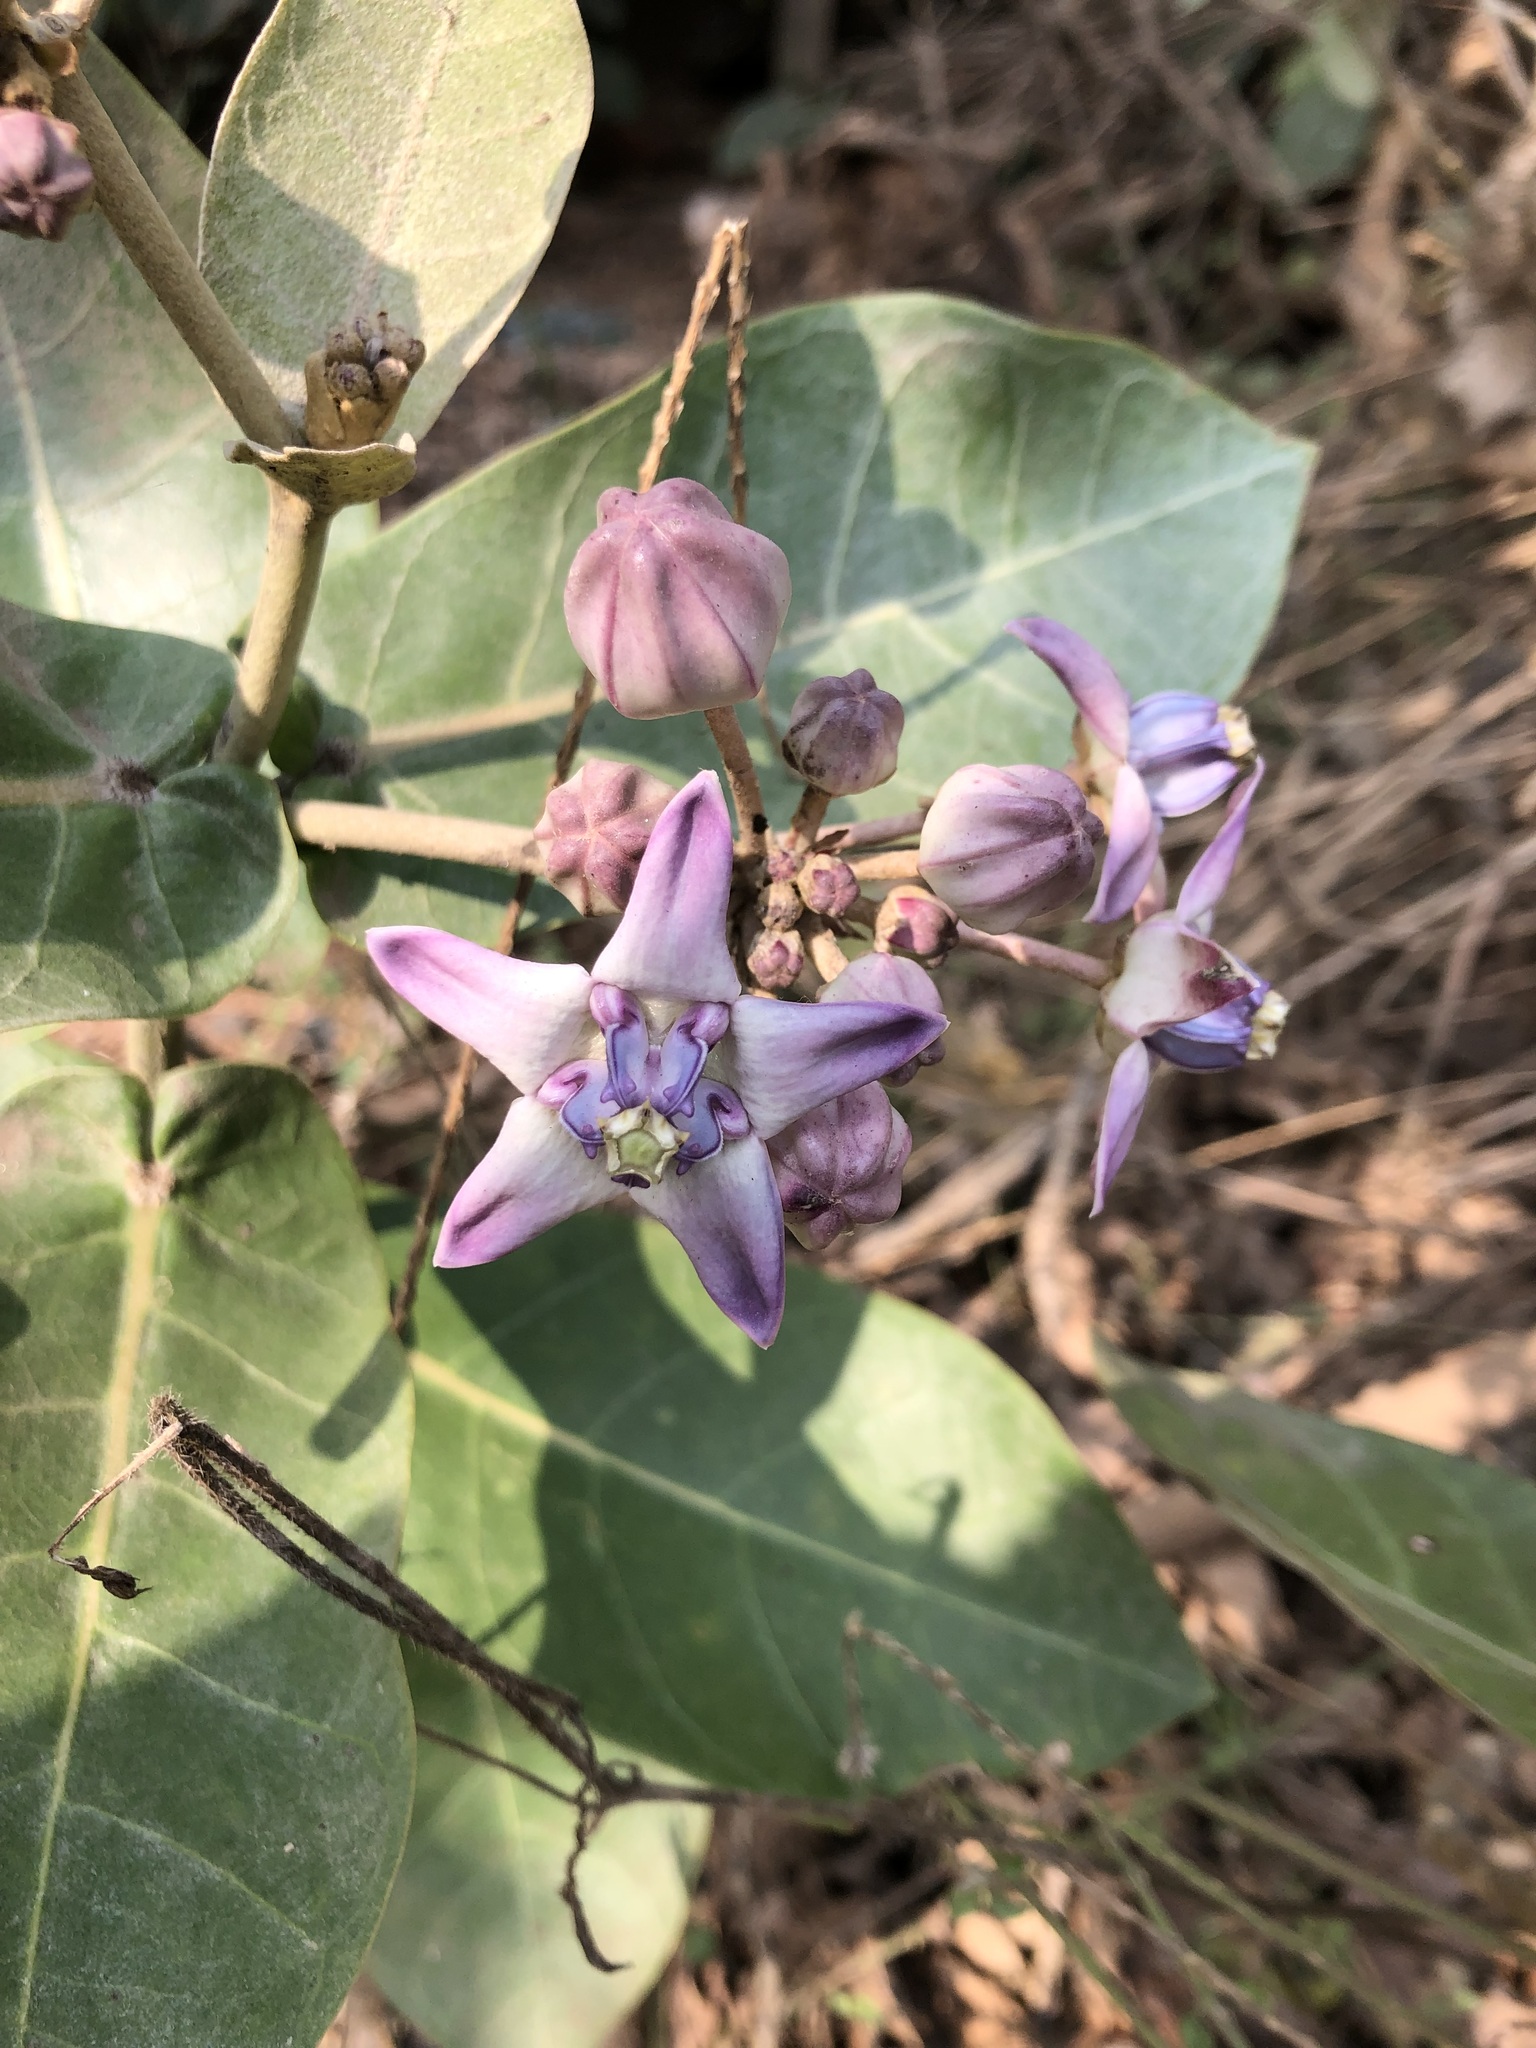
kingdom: Plantae
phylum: Tracheophyta
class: Magnoliopsida
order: Gentianales
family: Apocynaceae
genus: Calotropis
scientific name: Calotropis gigantea
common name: Crown flower
